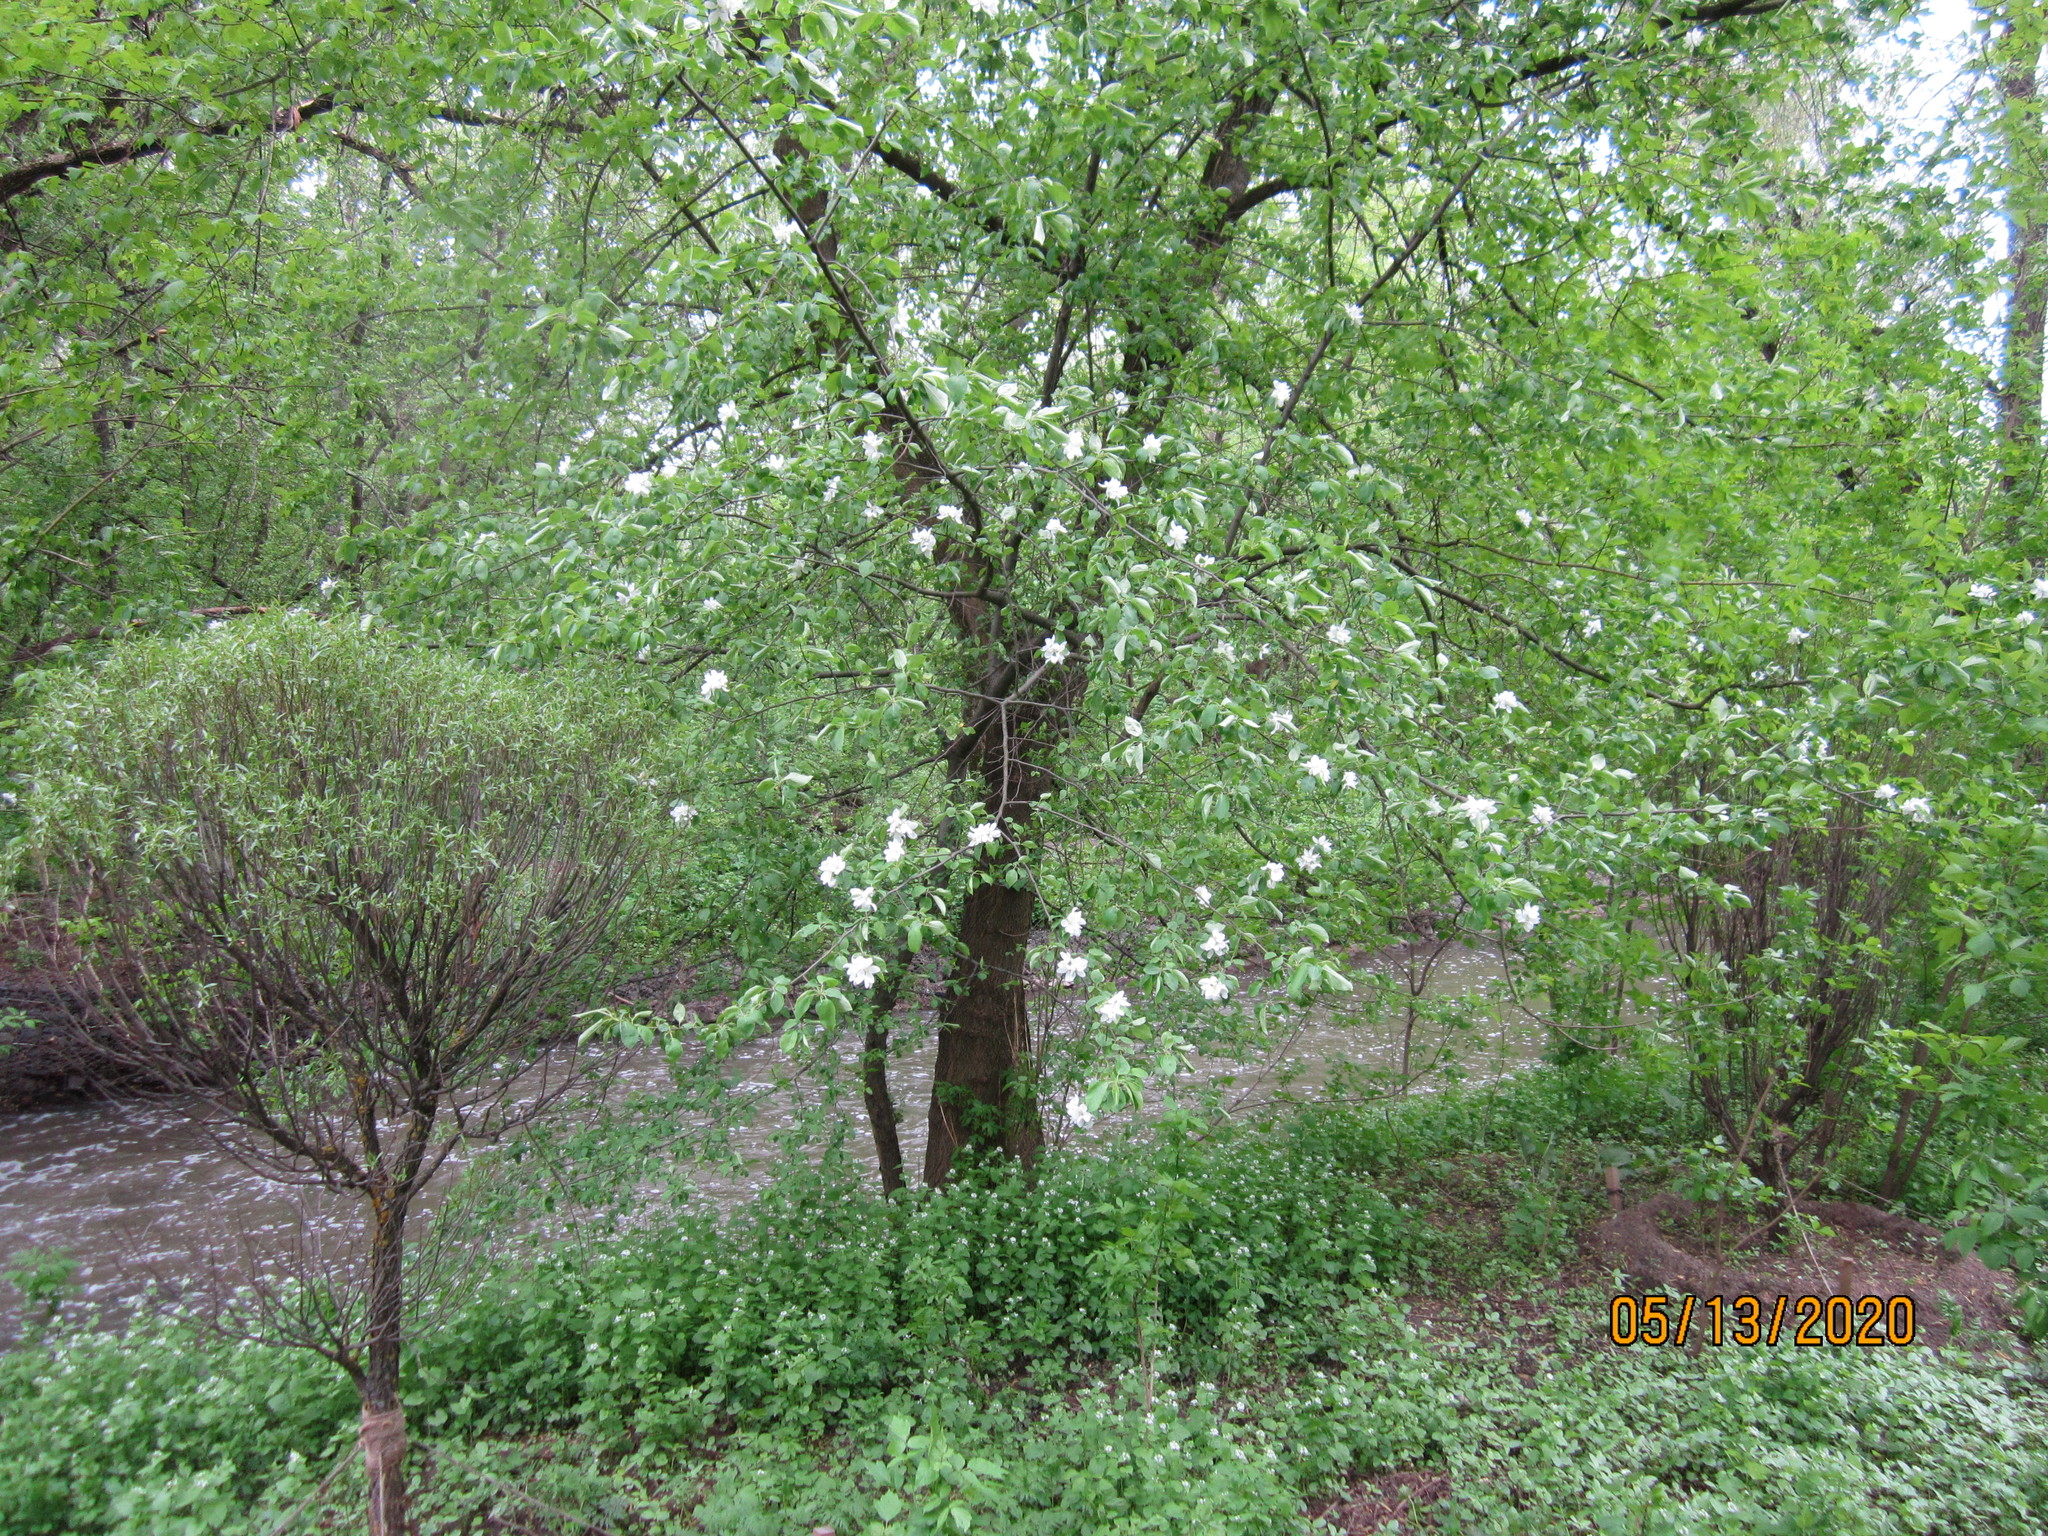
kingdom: Plantae
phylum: Tracheophyta
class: Magnoliopsida
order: Rosales
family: Rosaceae
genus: Malus
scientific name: Malus domestica
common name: Apple
